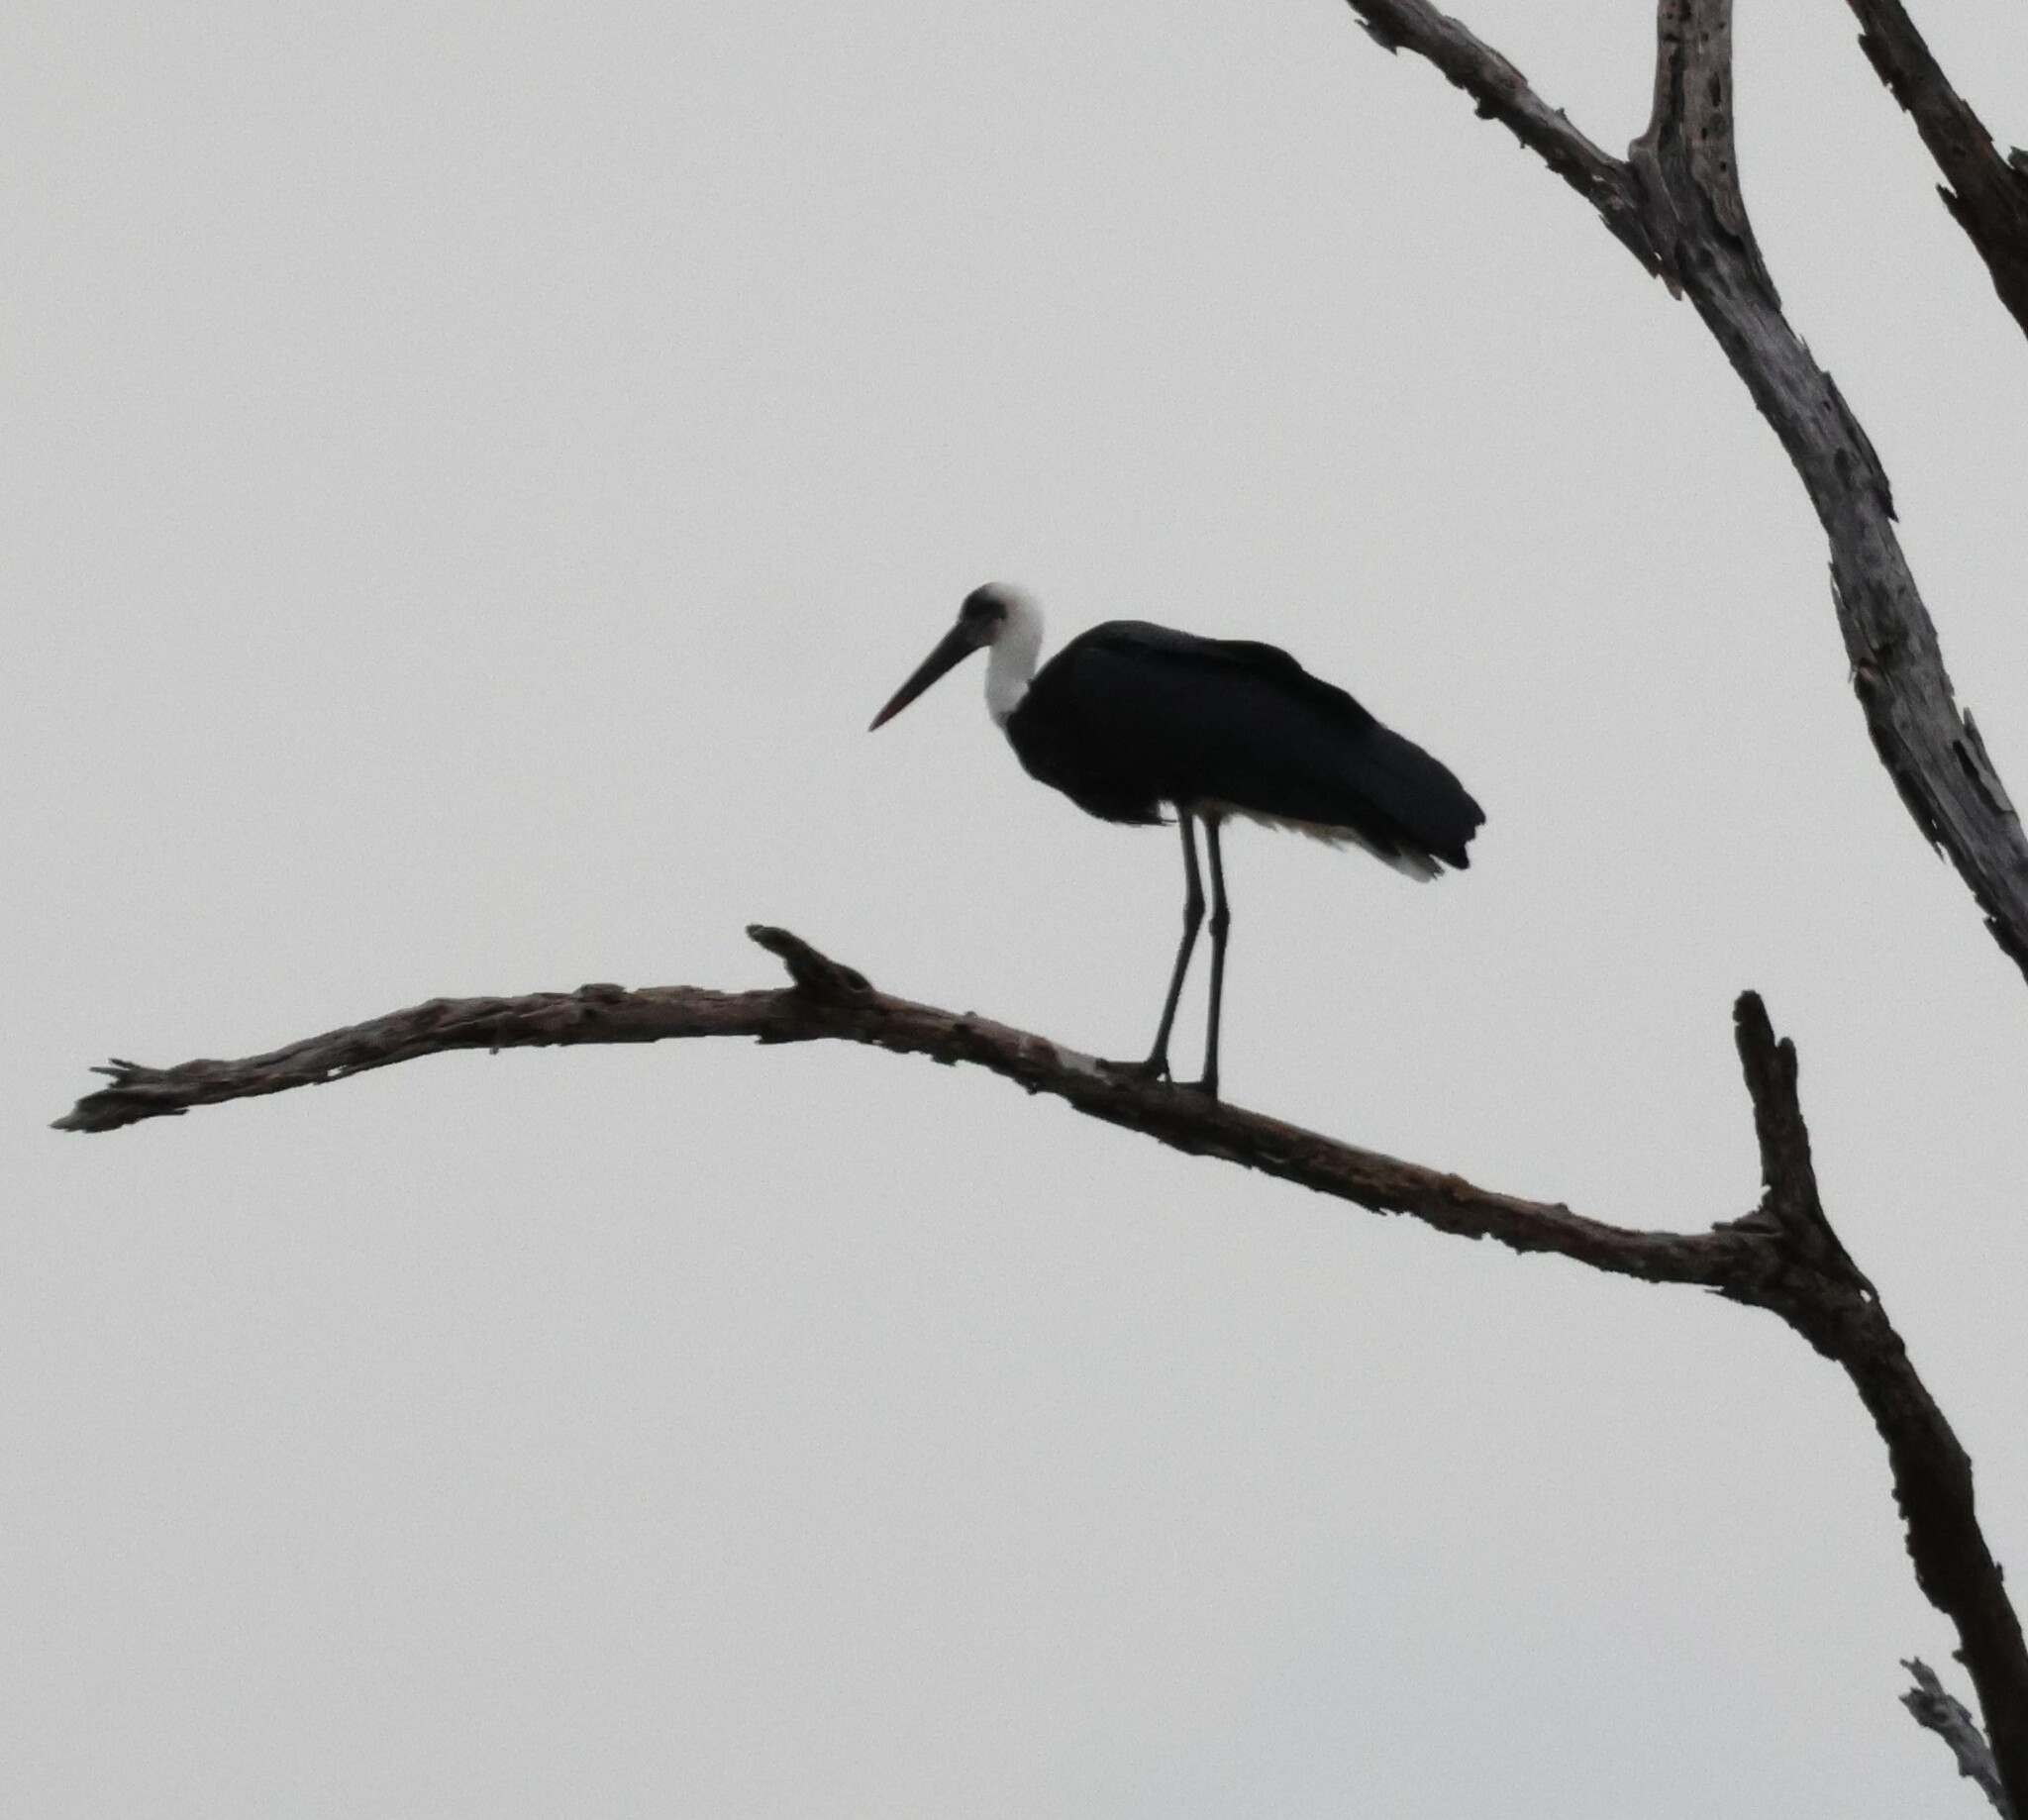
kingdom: Animalia
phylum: Chordata
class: Aves
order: Ciconiiformes
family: Ciconiidae
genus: Ciconia
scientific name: Ciconia microscelis
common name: African woollyneck
